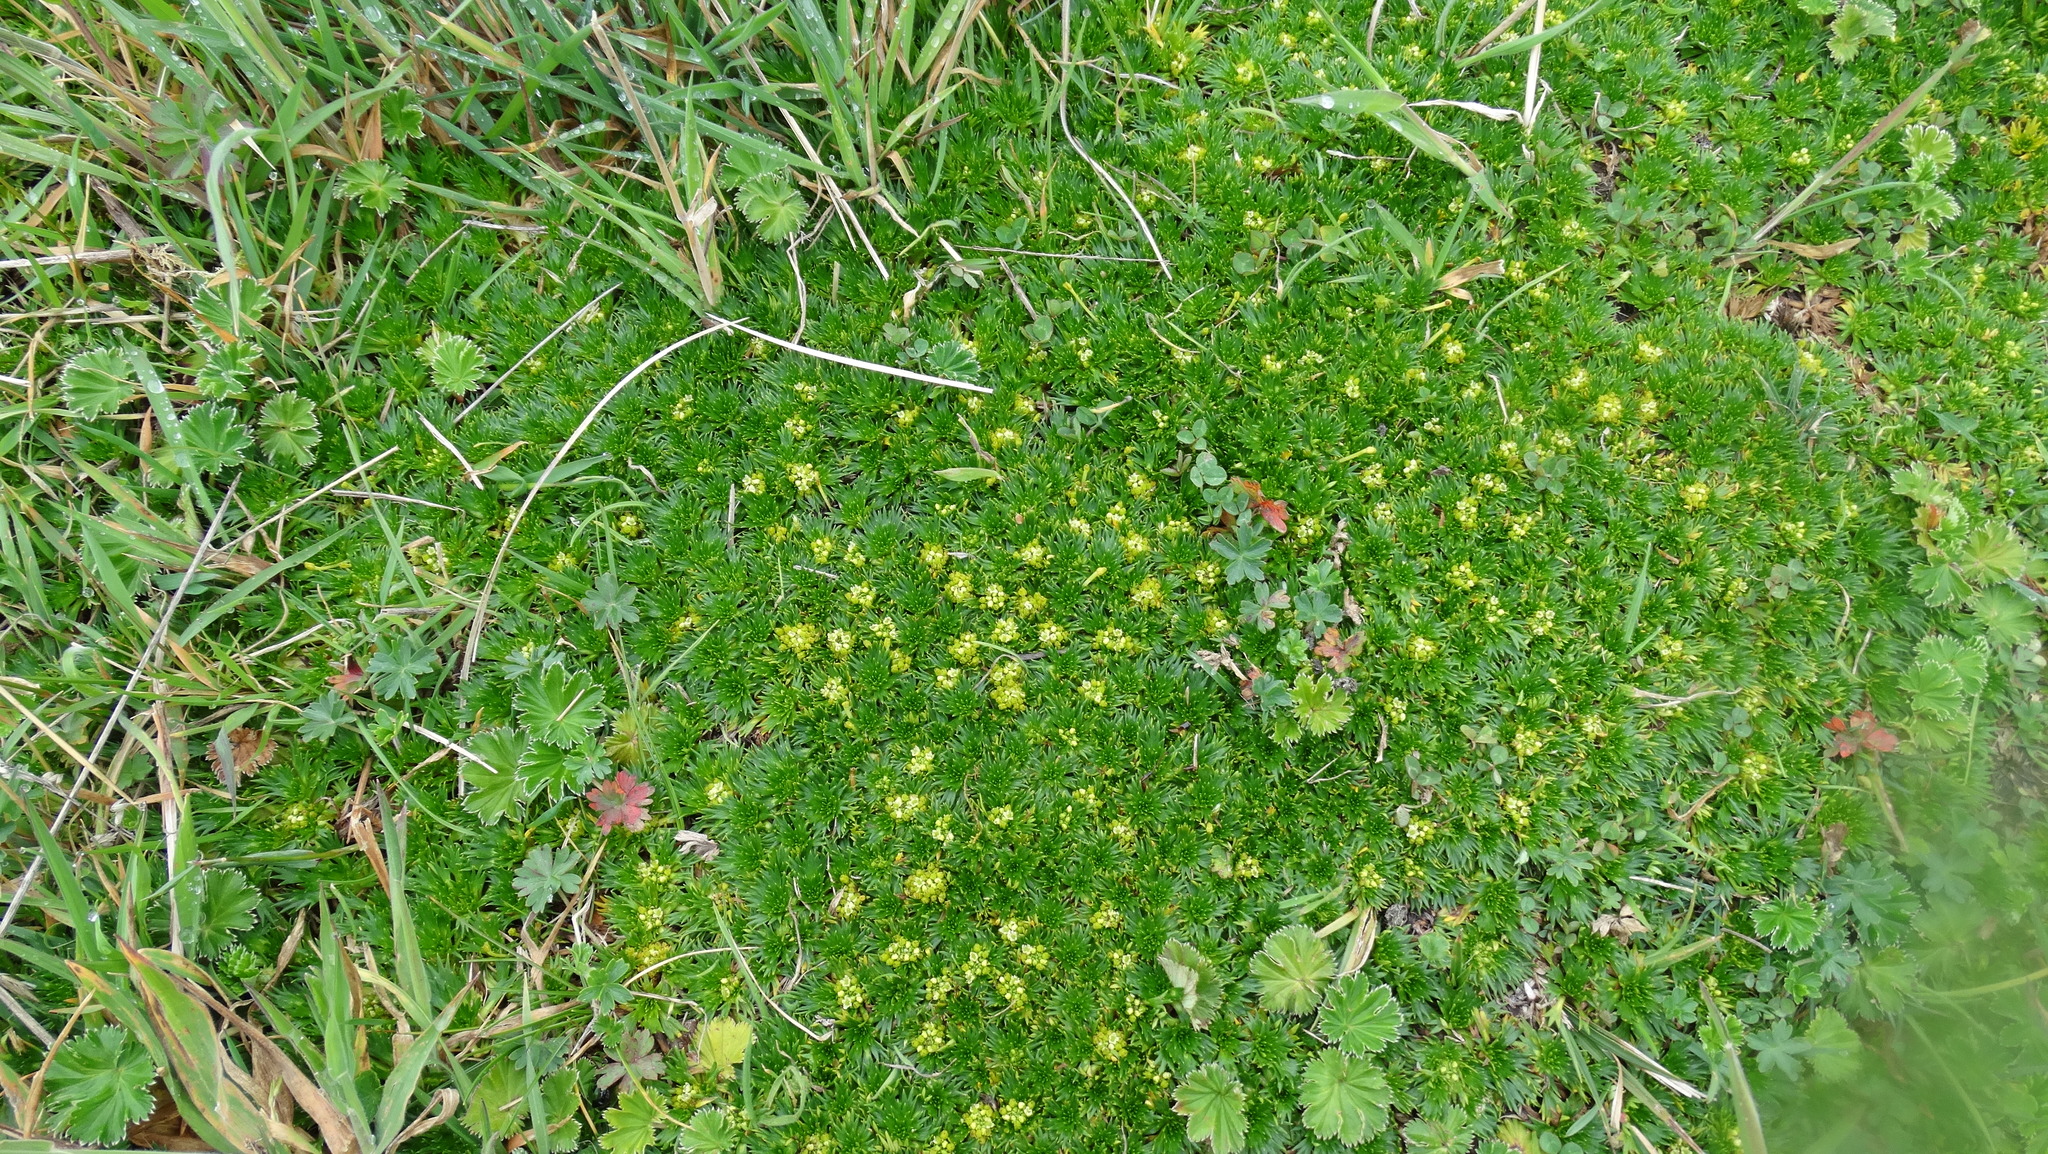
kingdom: Plantae
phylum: Tracheophyta
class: Magnoliopsida
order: Apiales
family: Apiaceae
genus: Azorella
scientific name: Azorella pedunculata
